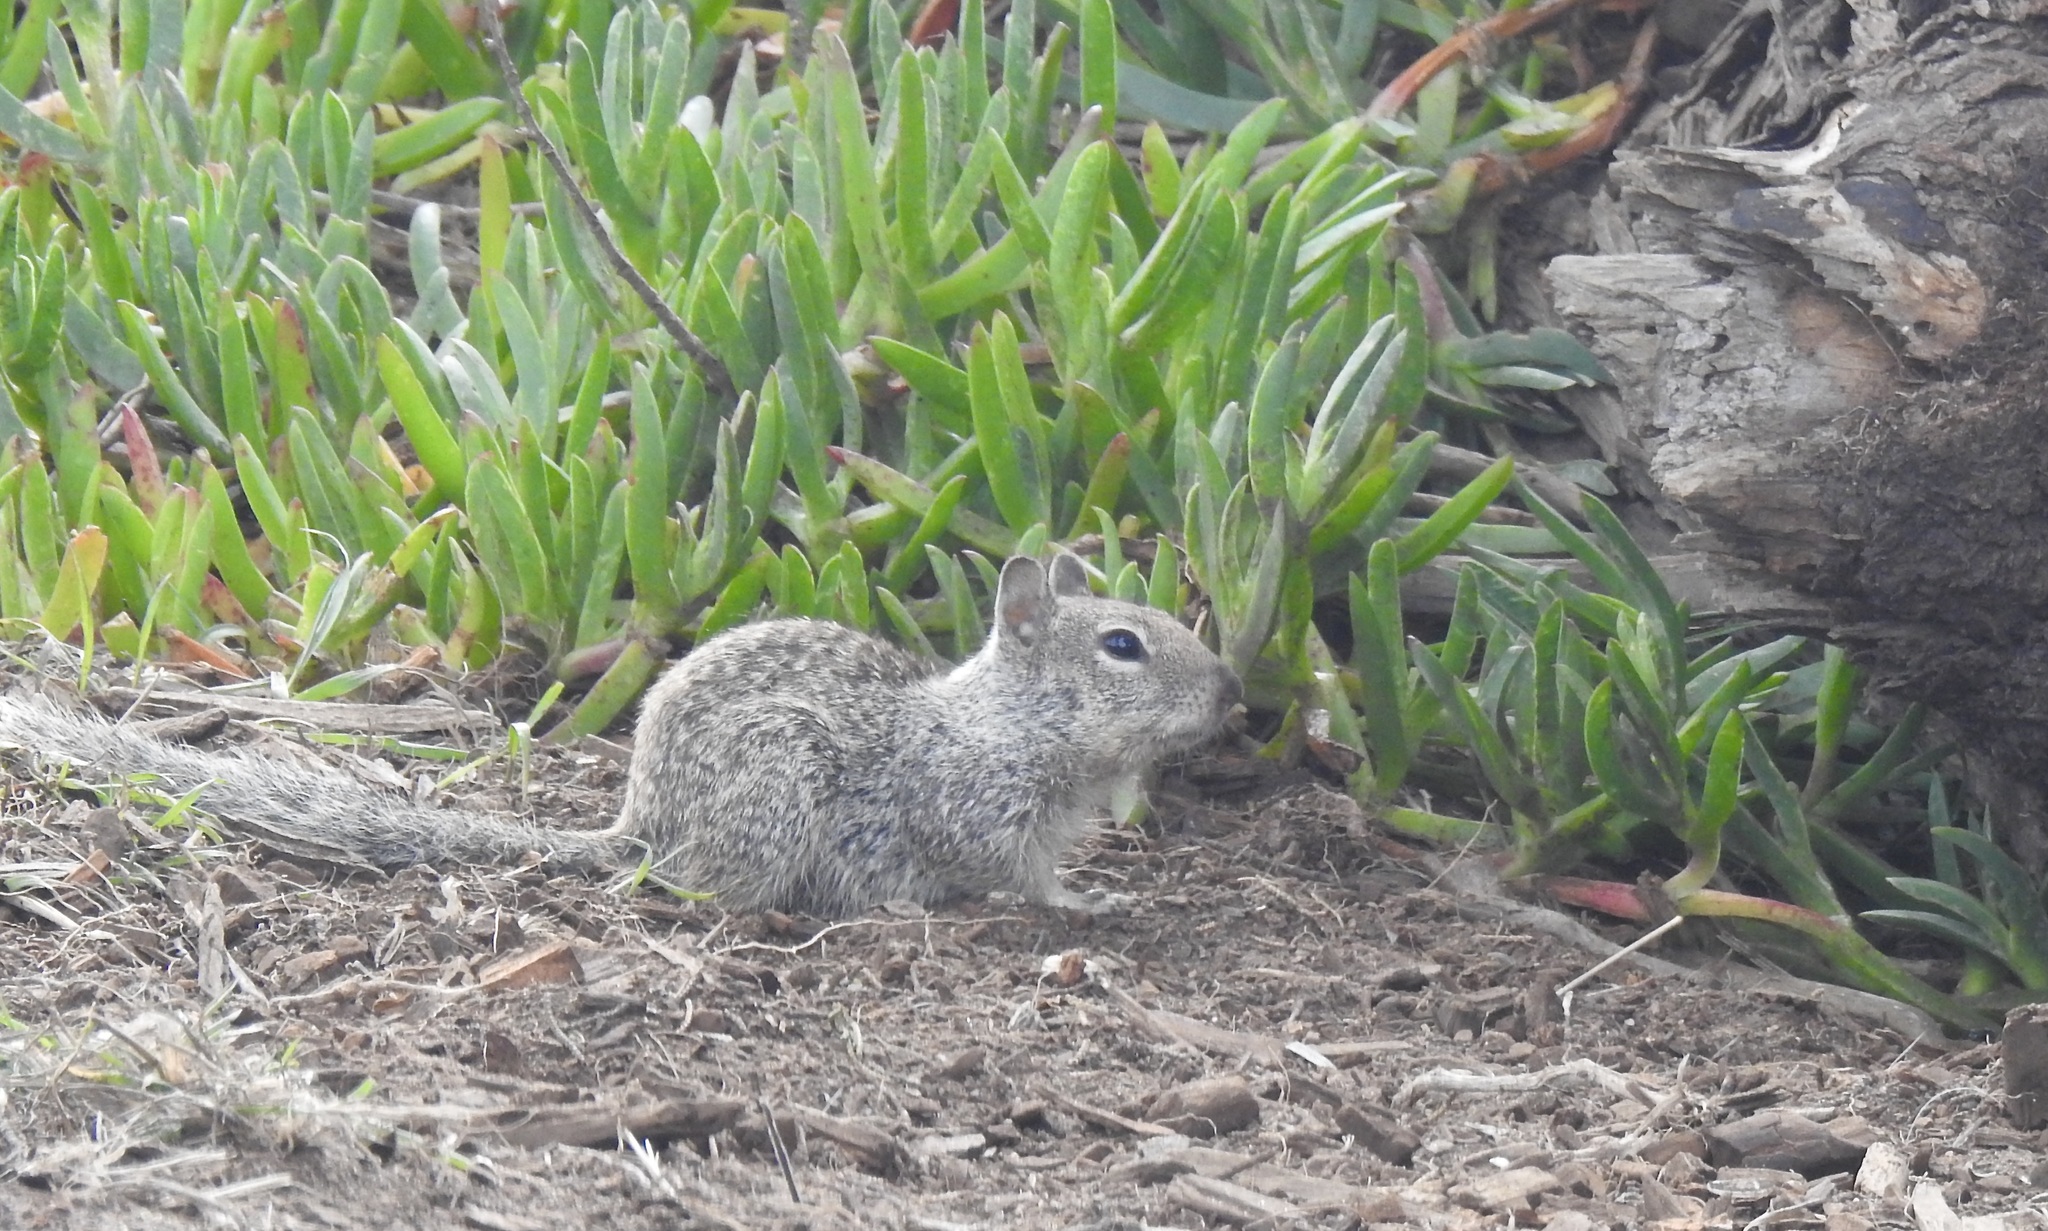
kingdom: Animalia
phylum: Chordata
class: Mammalia
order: Rodentia
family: Sciuridae
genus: Otospermophilus
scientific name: Otospermophilus beecheyi
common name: California ground squirrel
